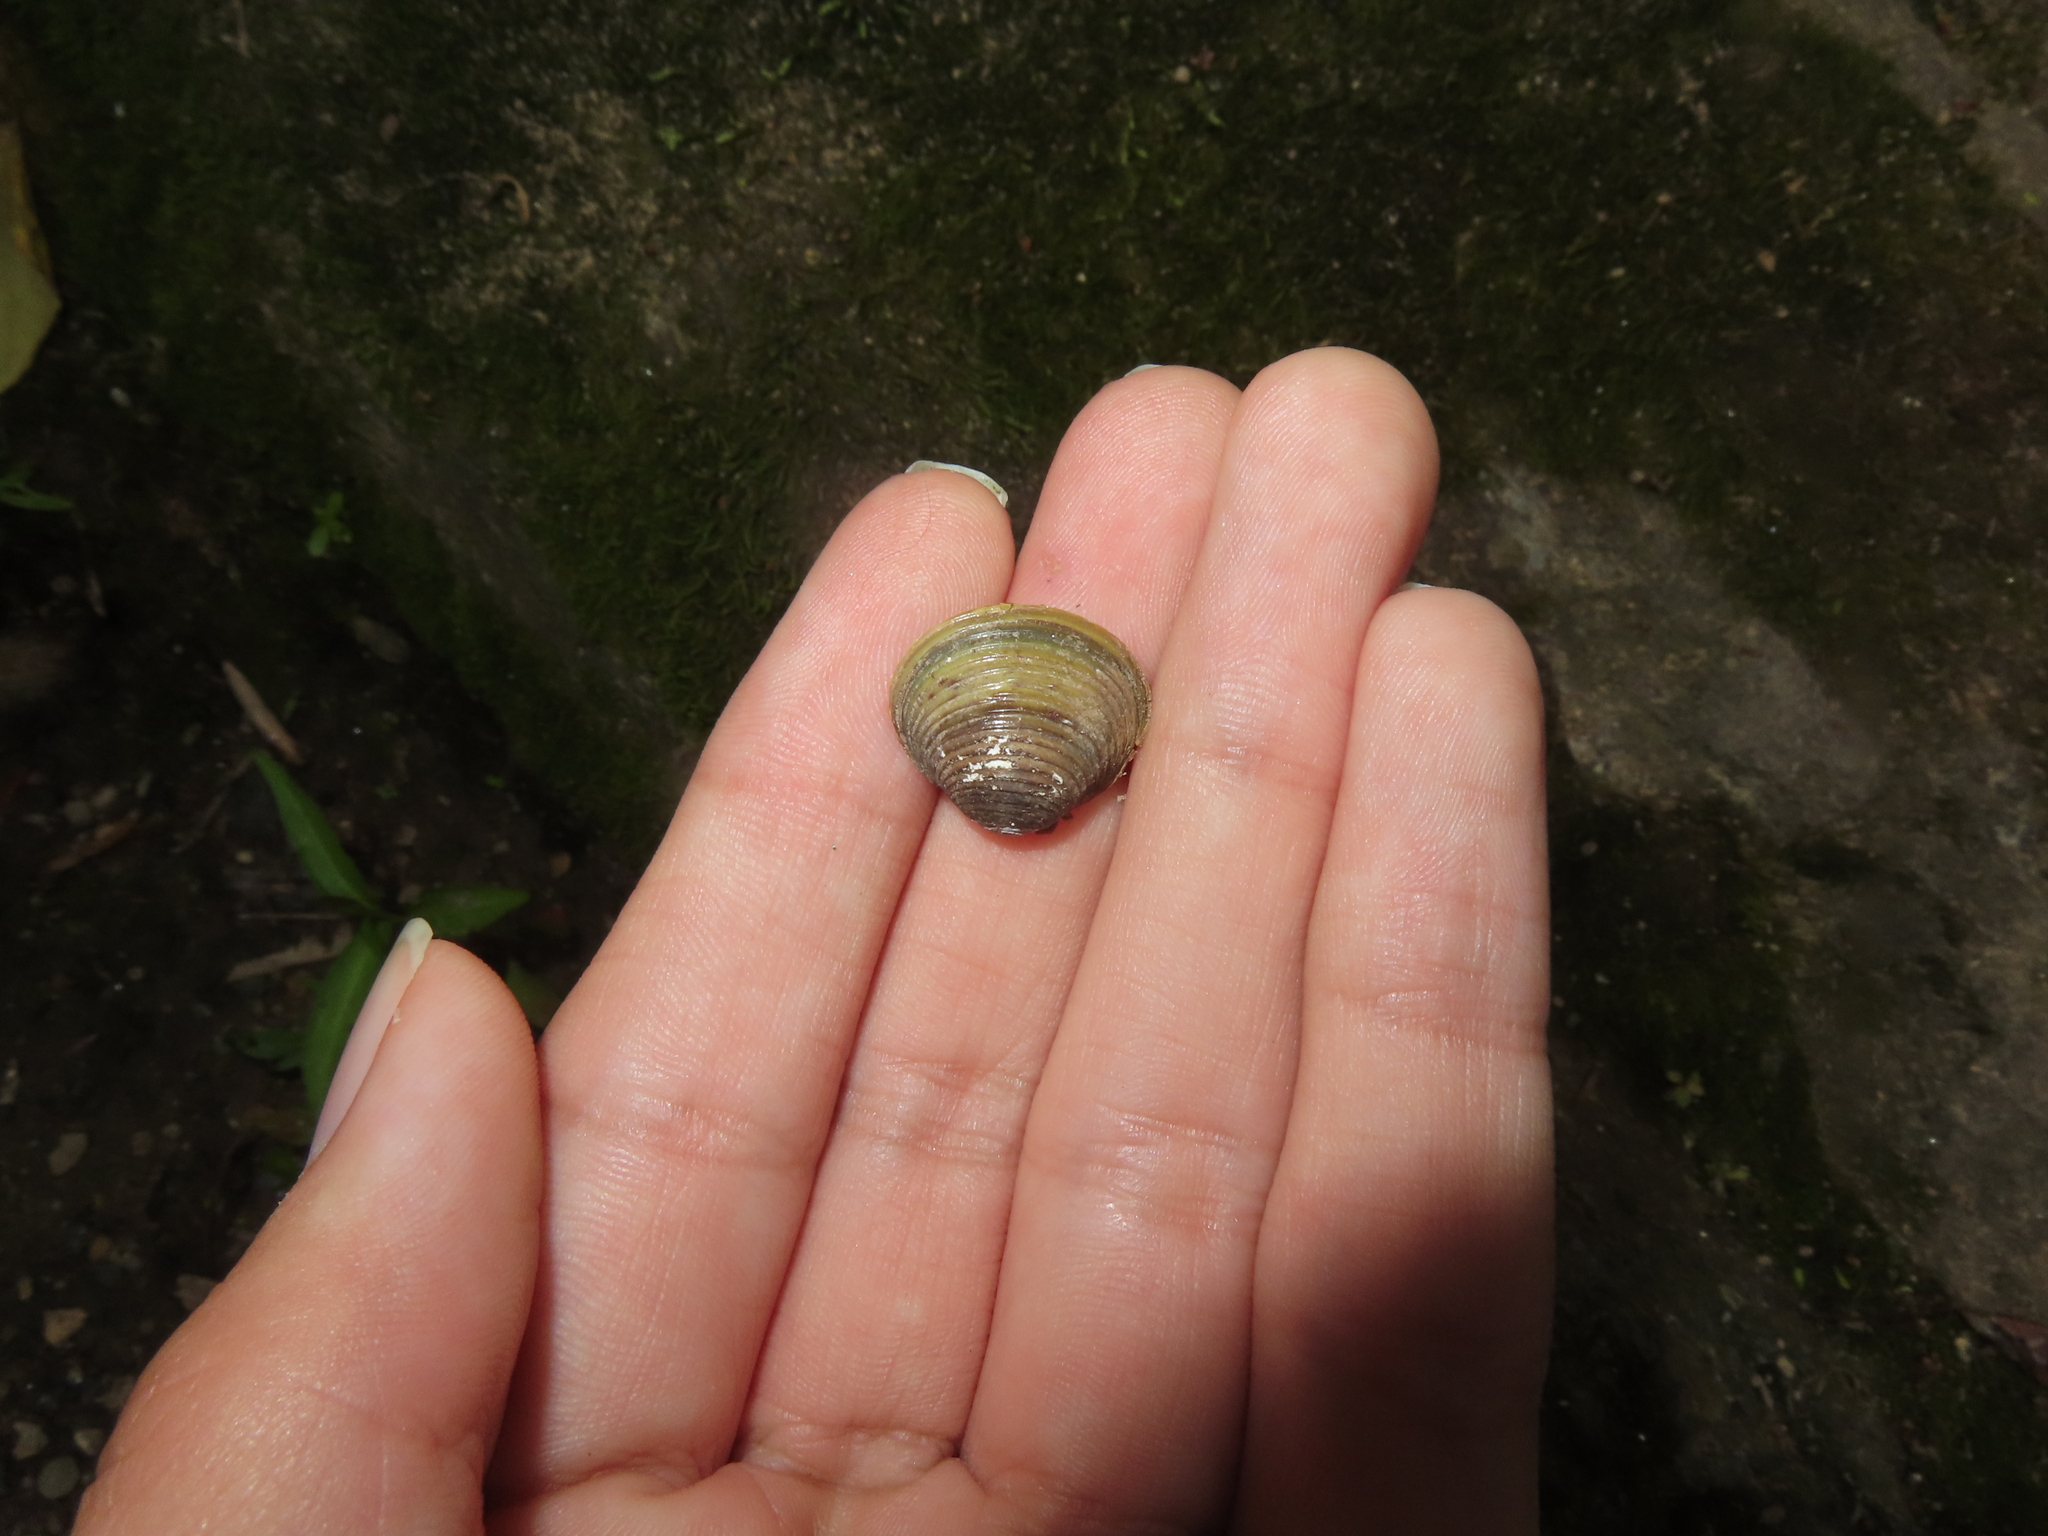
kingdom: Animalia
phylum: Mollusca
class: Bivalvia
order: Venerida
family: Cyrenidae
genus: Corbicula
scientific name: Corbicula fluminea
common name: Asian clam
